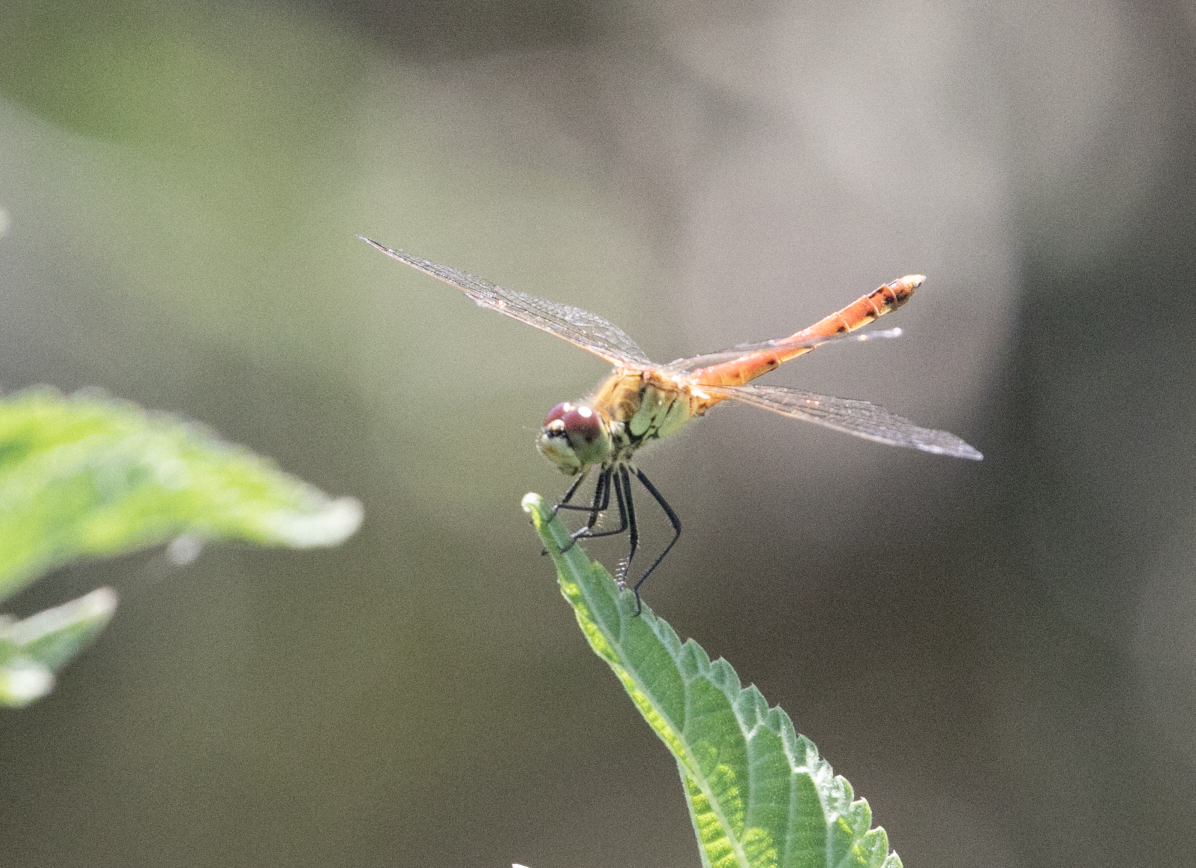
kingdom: Animalia
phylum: Arthropoda
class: Insecta
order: Odonata
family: Libellulidae
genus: Sympetrum
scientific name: Sympetrum depressiusculum
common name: Spotted darter
